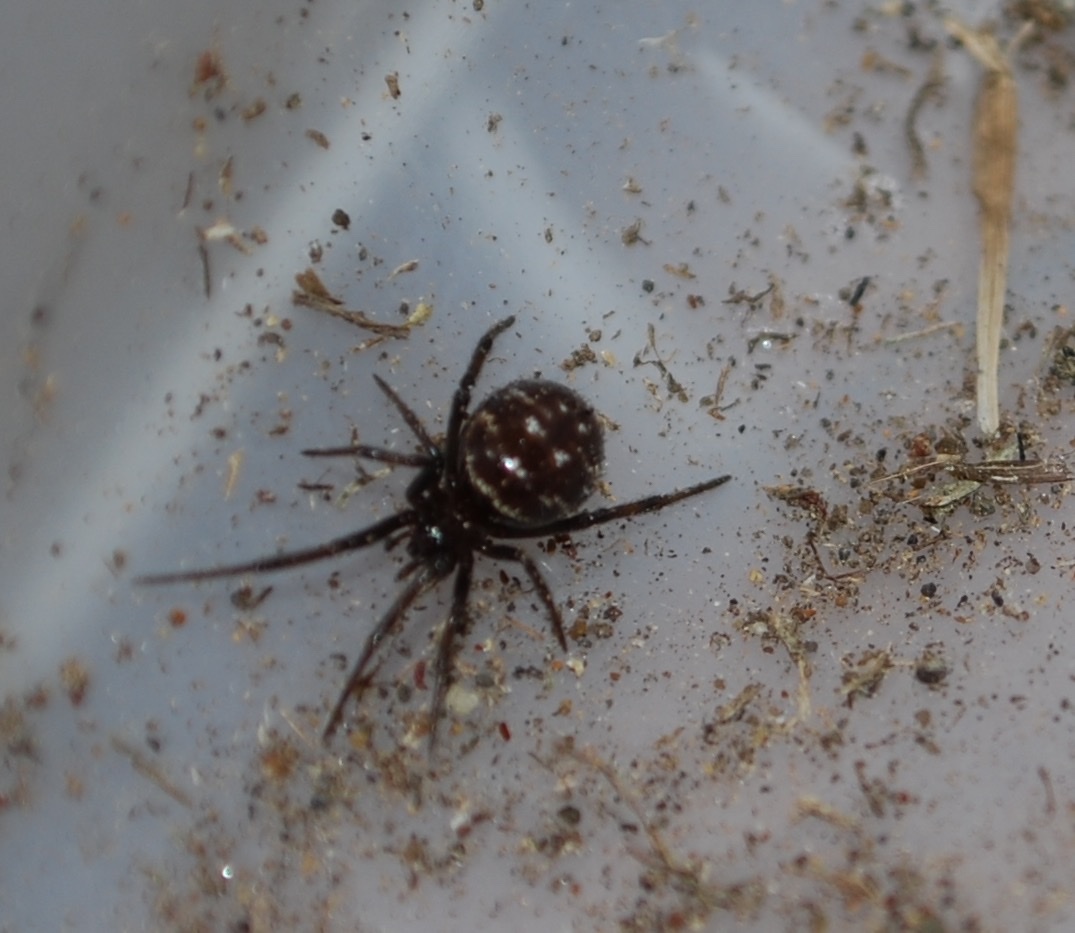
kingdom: Animalia
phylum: Arthropoda
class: Arachnida
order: Araneae
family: Theridiidae
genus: Steatoda
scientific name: Steatoda capensis
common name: Cobweb weaver
